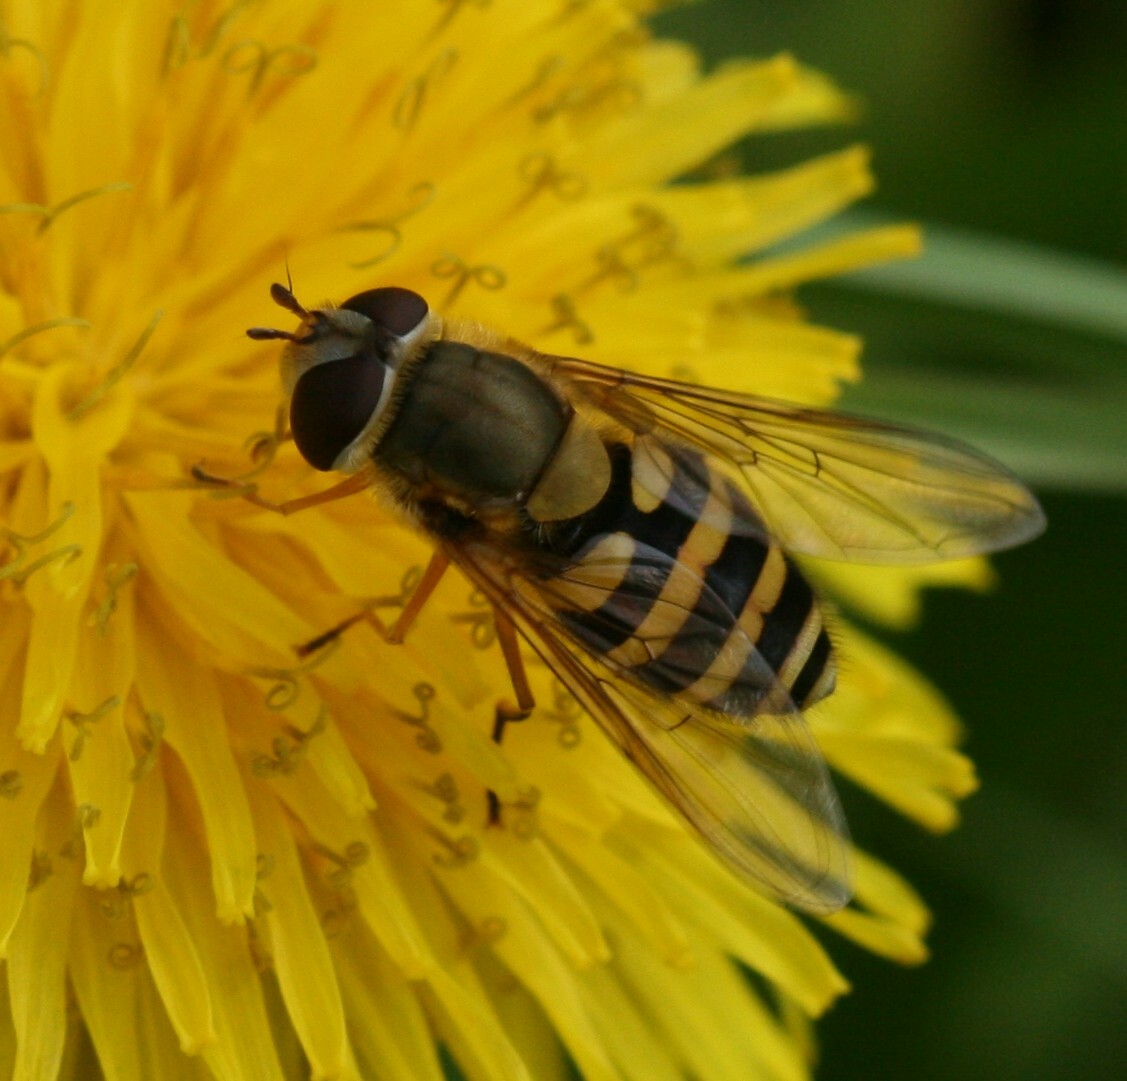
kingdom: Animalia
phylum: Arthropoda
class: Insecta
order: Diptera
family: Syrphidae
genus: Syrphus
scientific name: Syrphus ribesii
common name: Common flower fly
